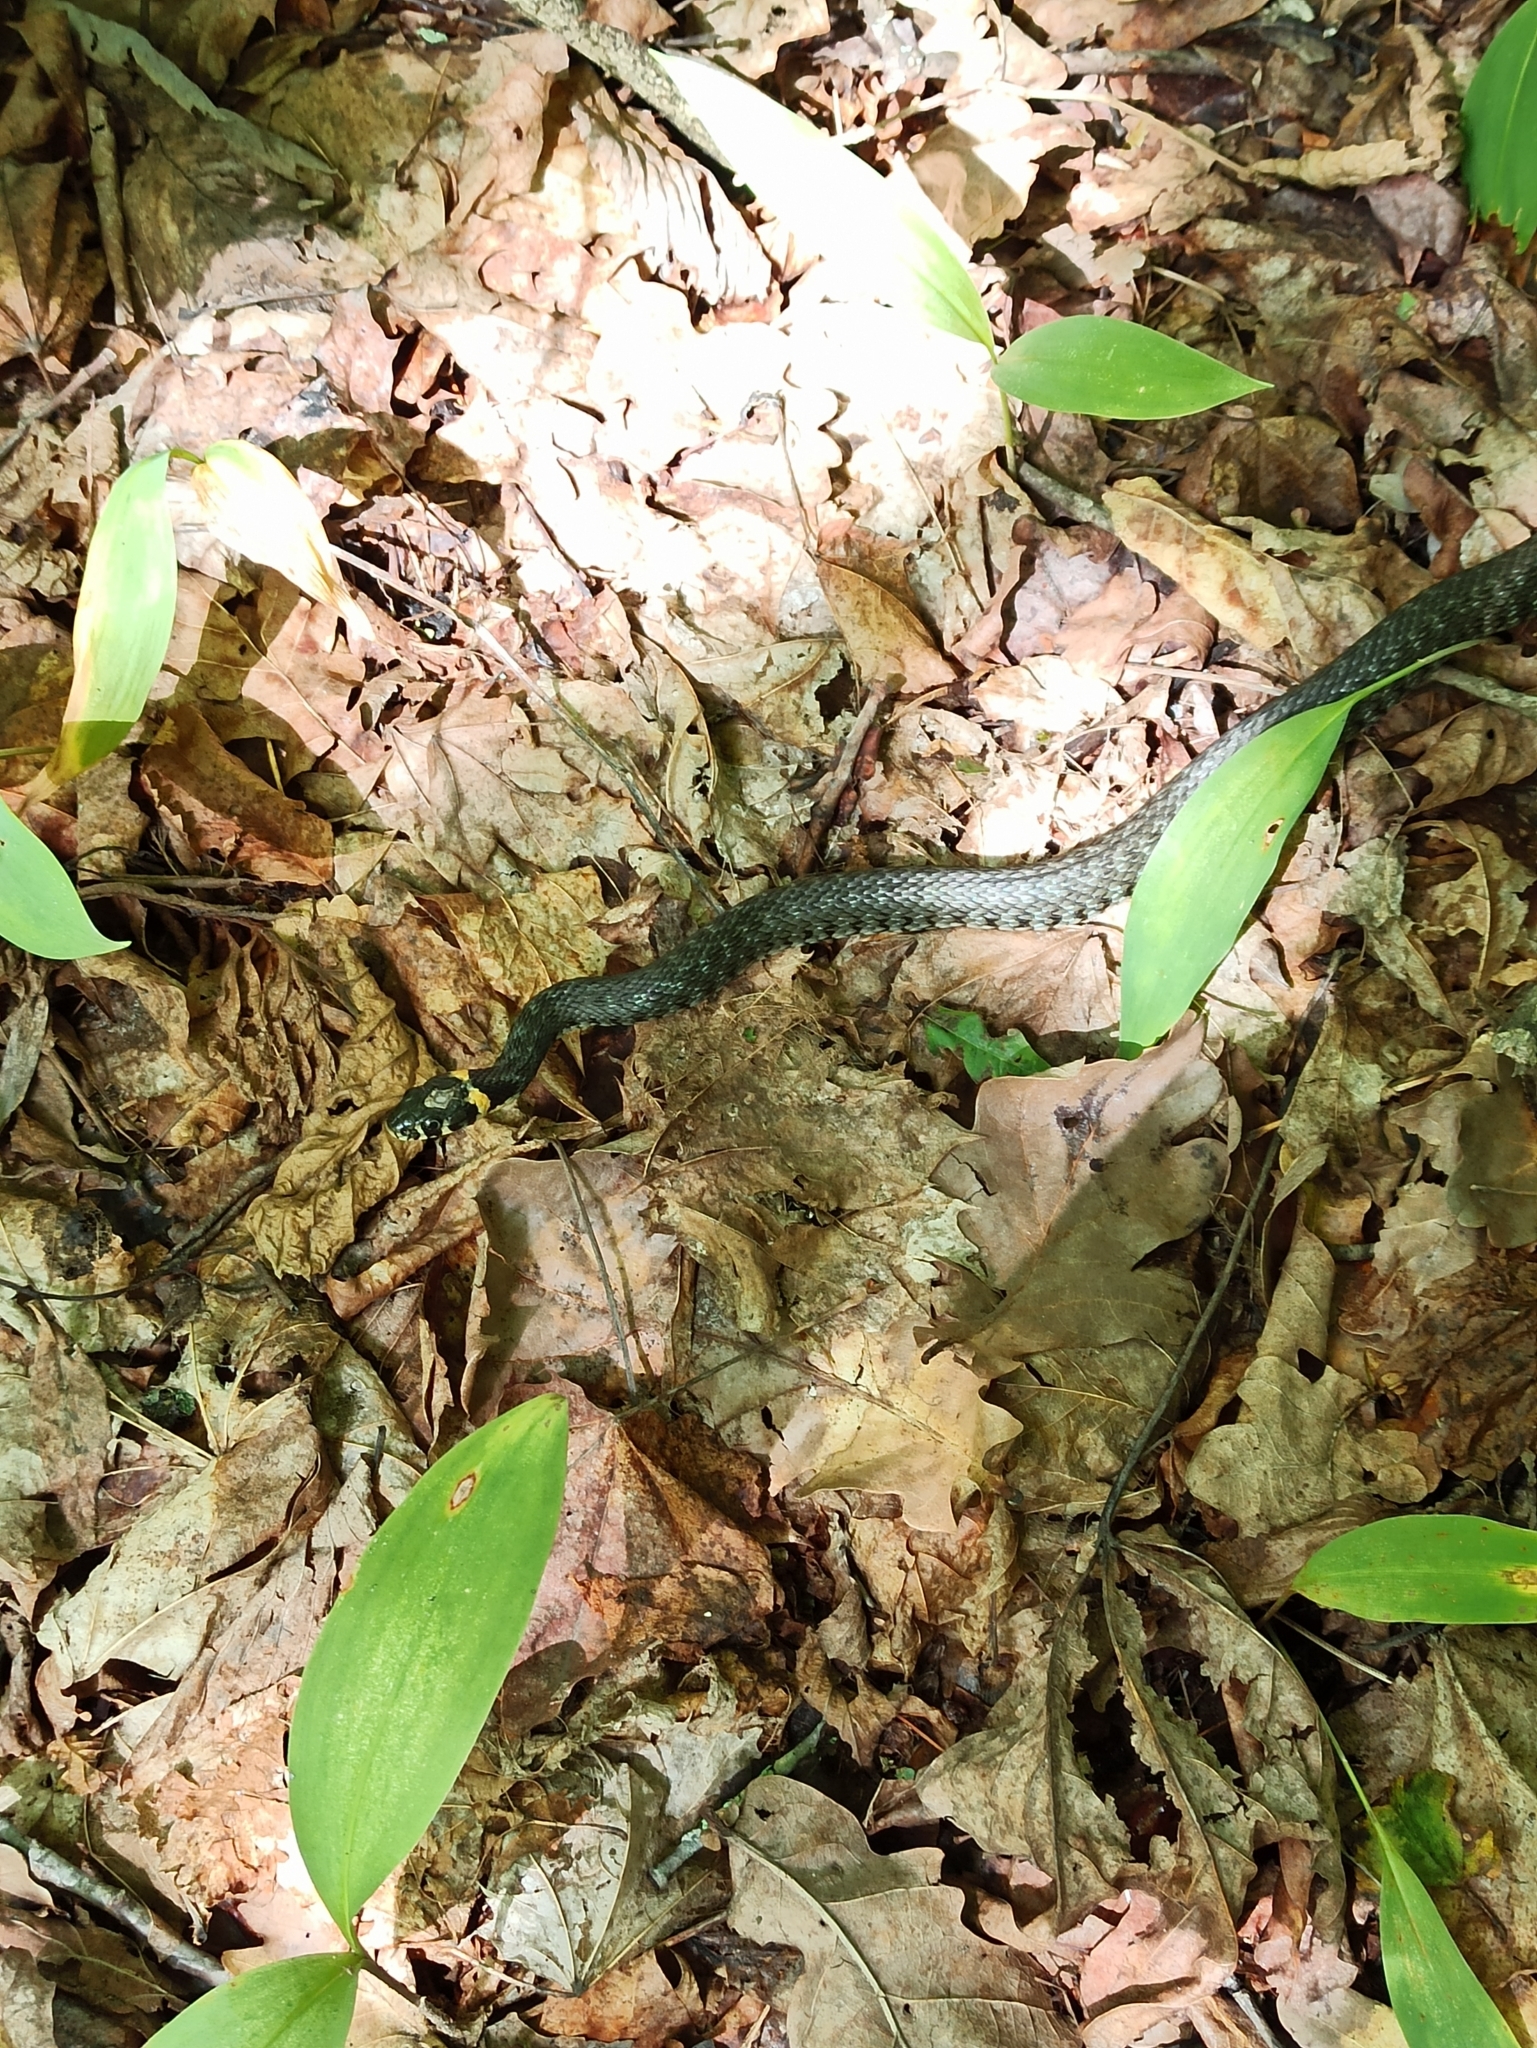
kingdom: Animalia
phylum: Chordata
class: Squamata
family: Colubridae
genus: Natrix
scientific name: Natrix natrix
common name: Grass snake
